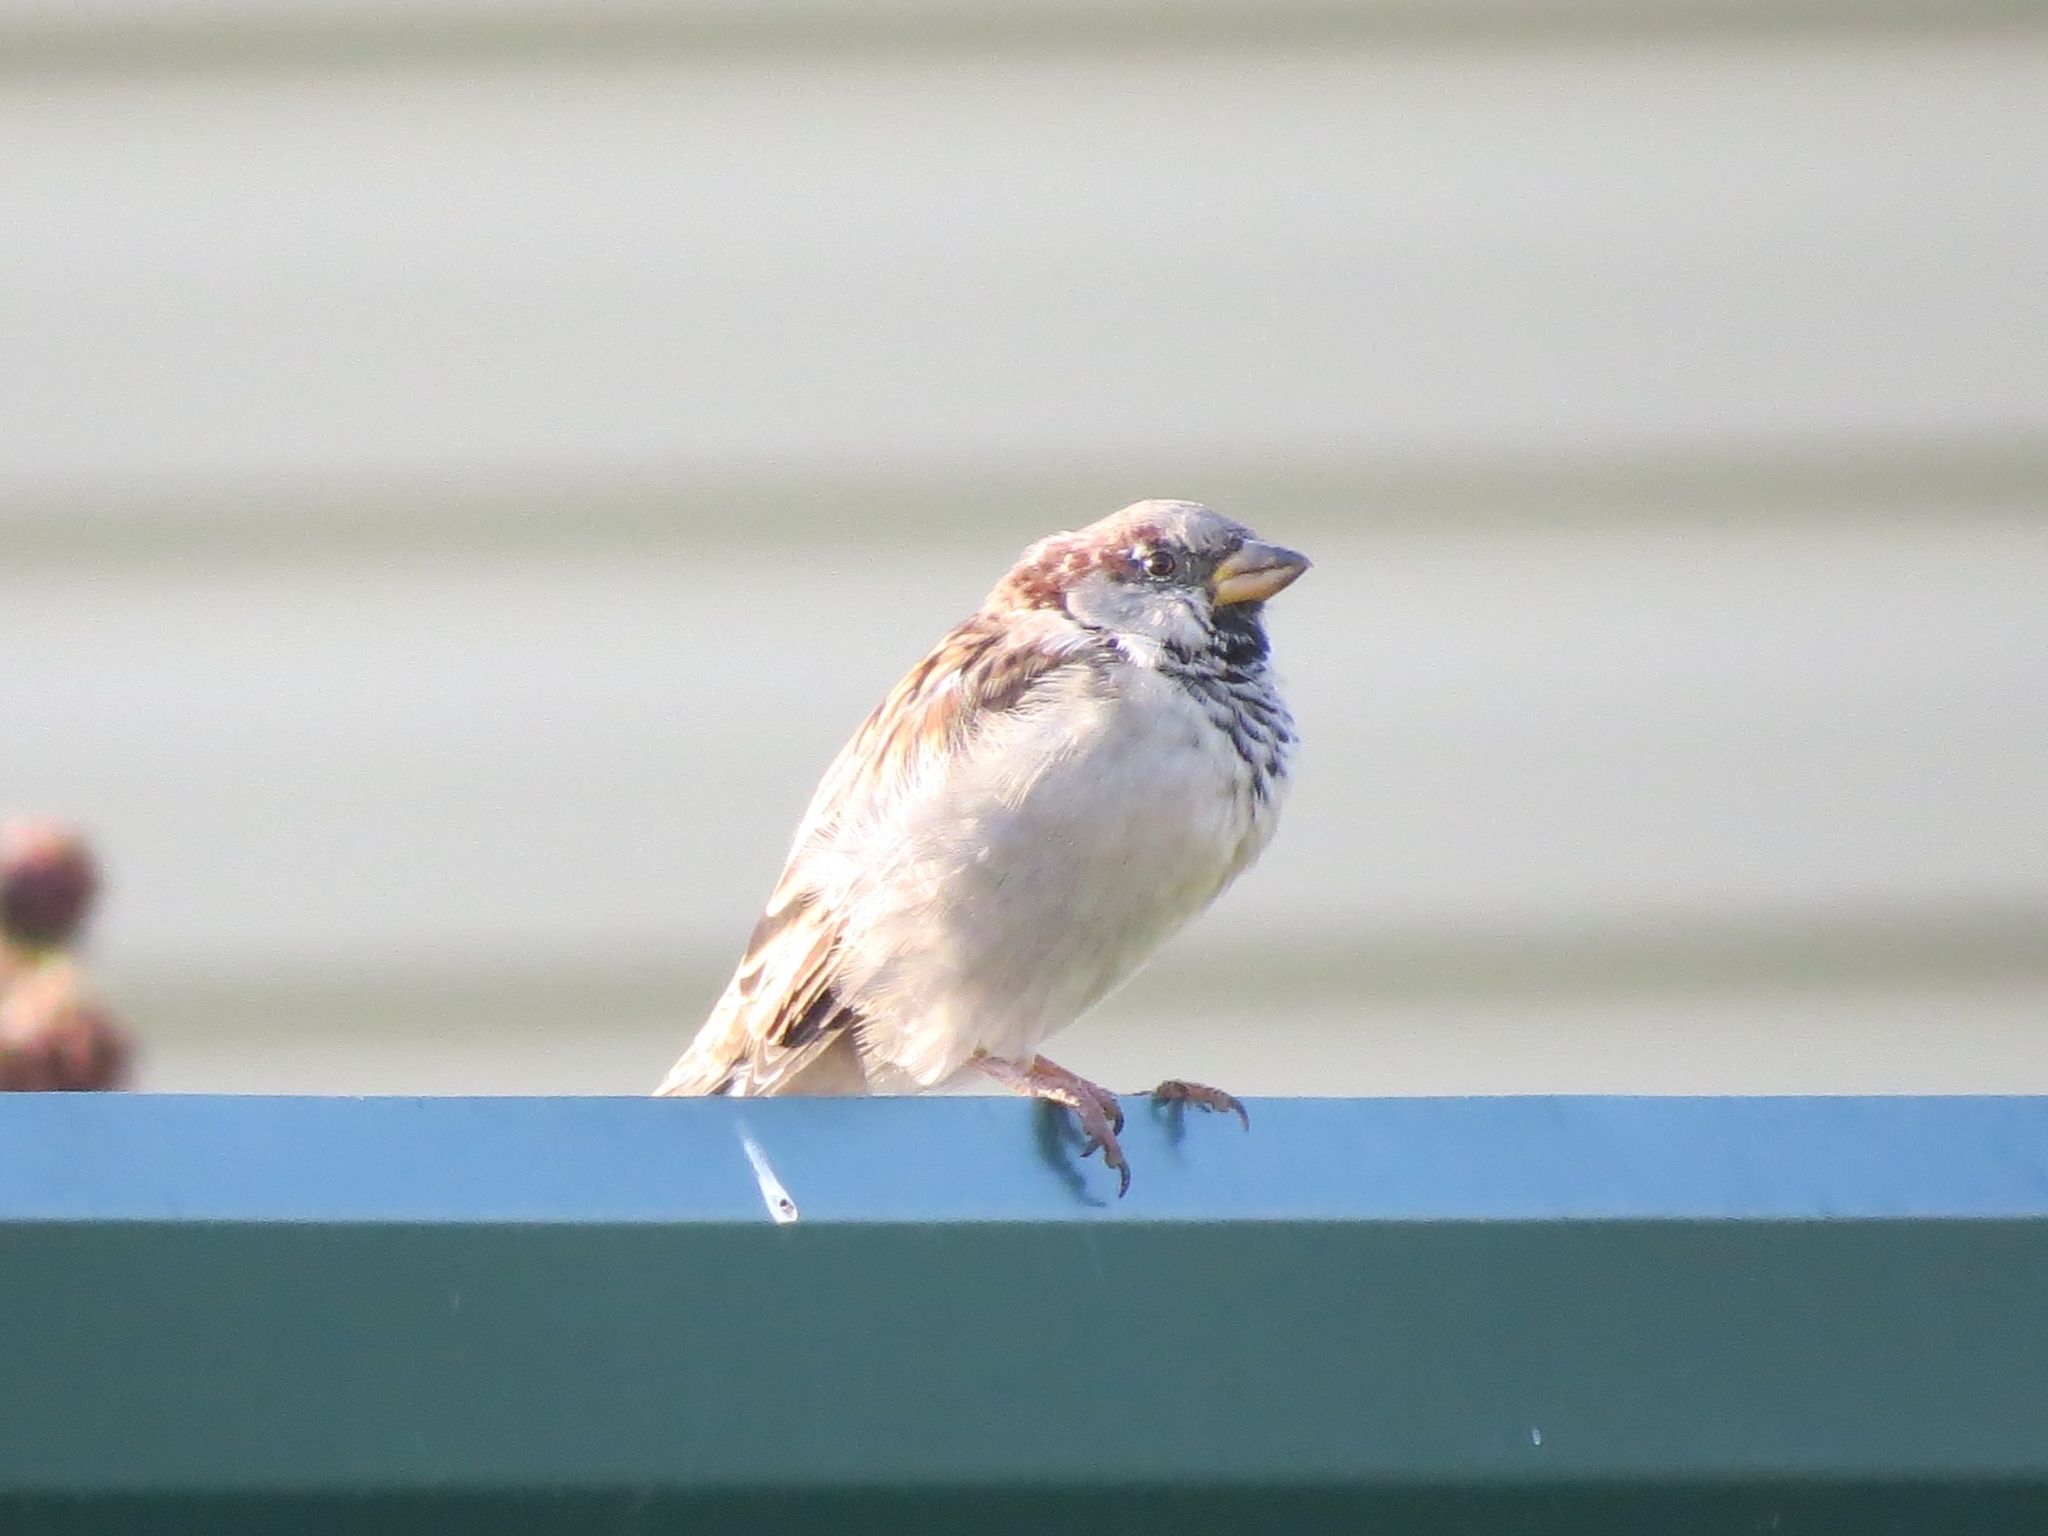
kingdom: Animalia
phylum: Chordata
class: Aves
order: Passeriformes
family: Passeridae
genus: Passer
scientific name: Passer domesticus
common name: House sparrow
